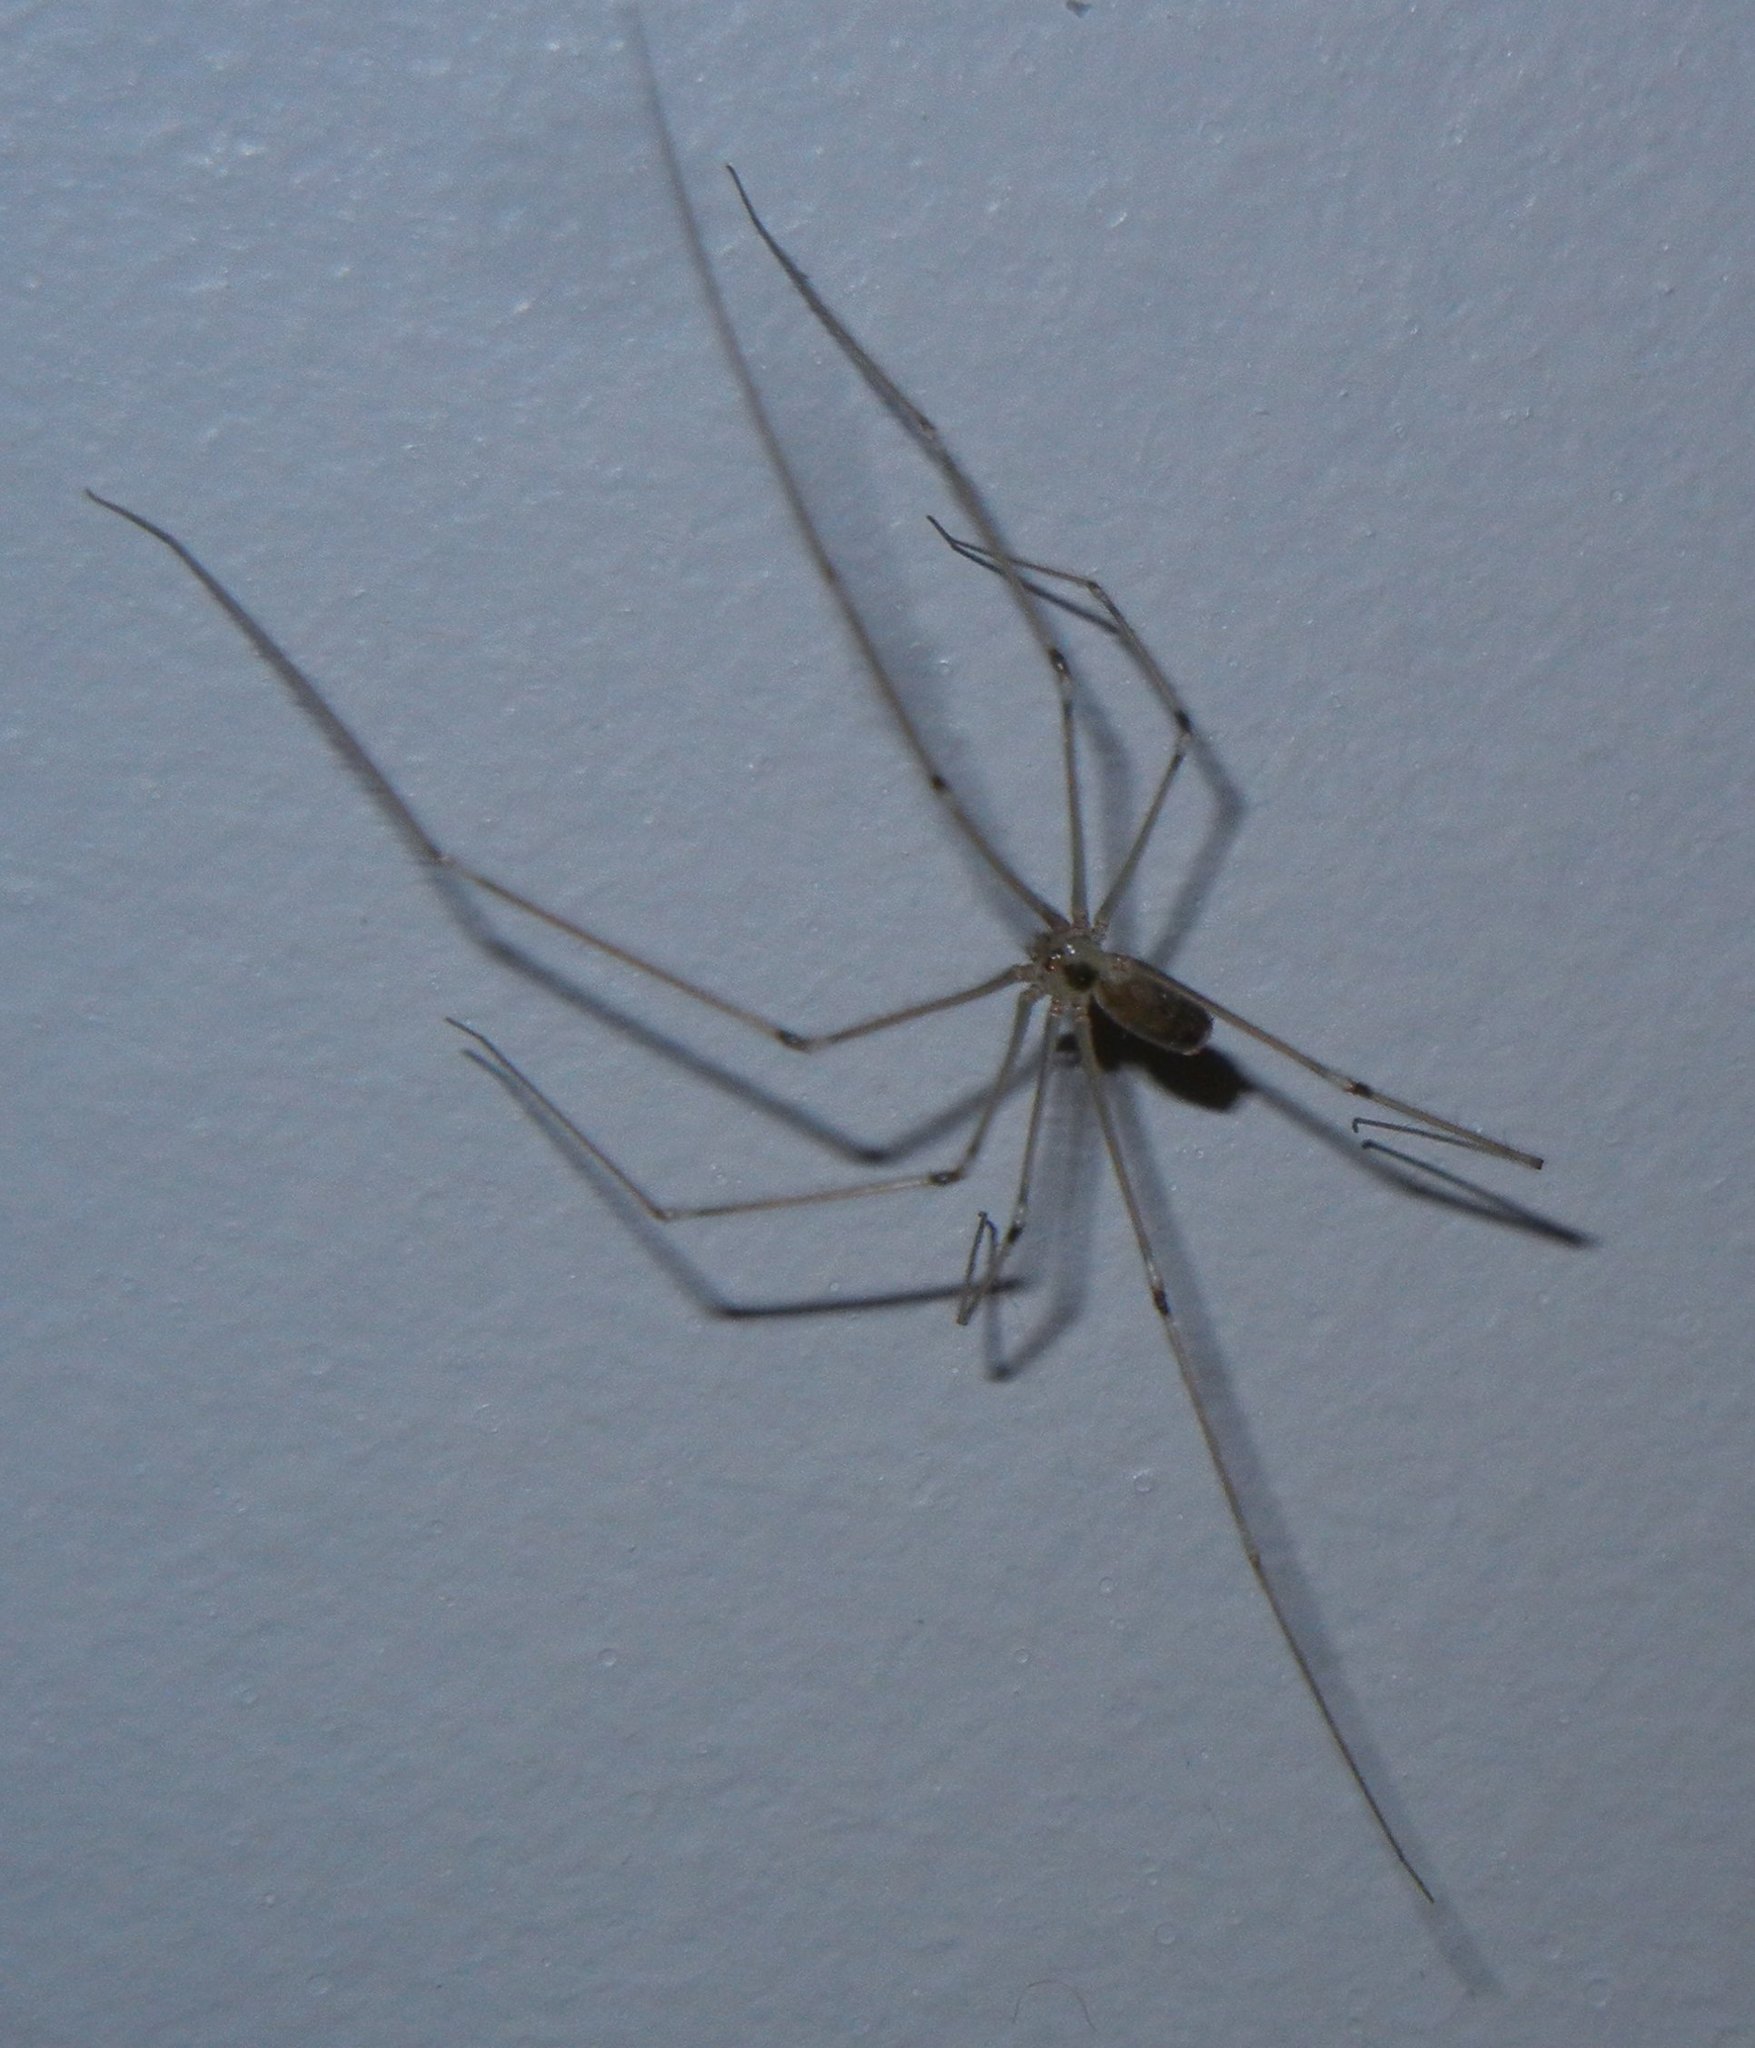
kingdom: Animalia
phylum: Arthropoda
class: Arachnida
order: Araneae
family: Pholcidae
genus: Pholcus
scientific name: Pholcus phalangioides
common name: Longbodied cellar spider
